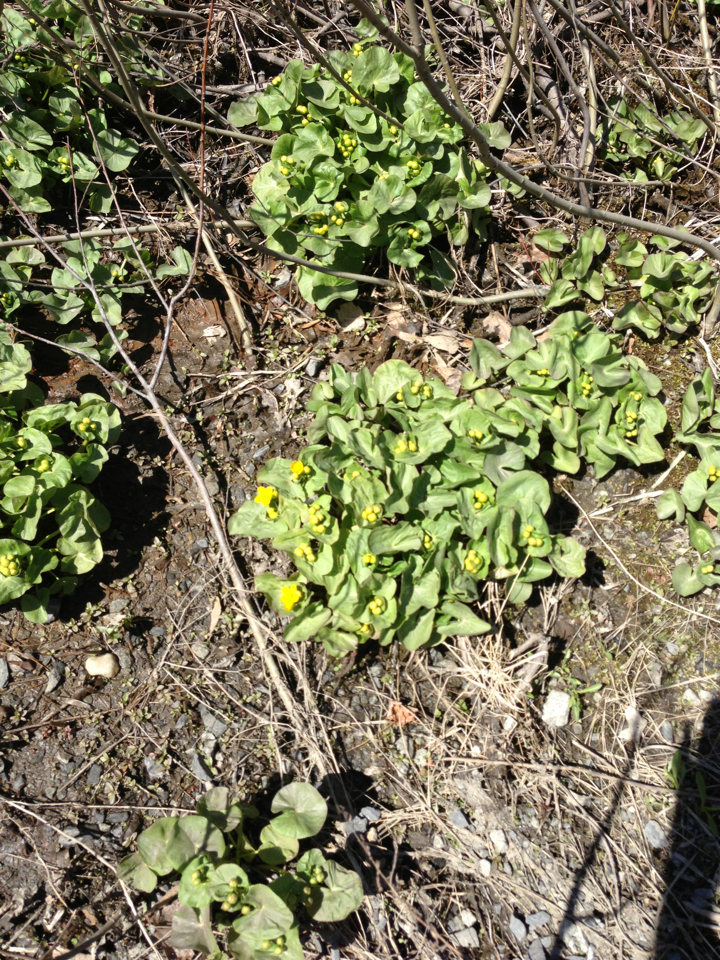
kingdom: Plantae
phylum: Tracheophyta
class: Magnoliopsida
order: Ranunculales
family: Ranunculaceae
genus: Caltha
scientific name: Caltha palustris
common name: Marsh marigold
